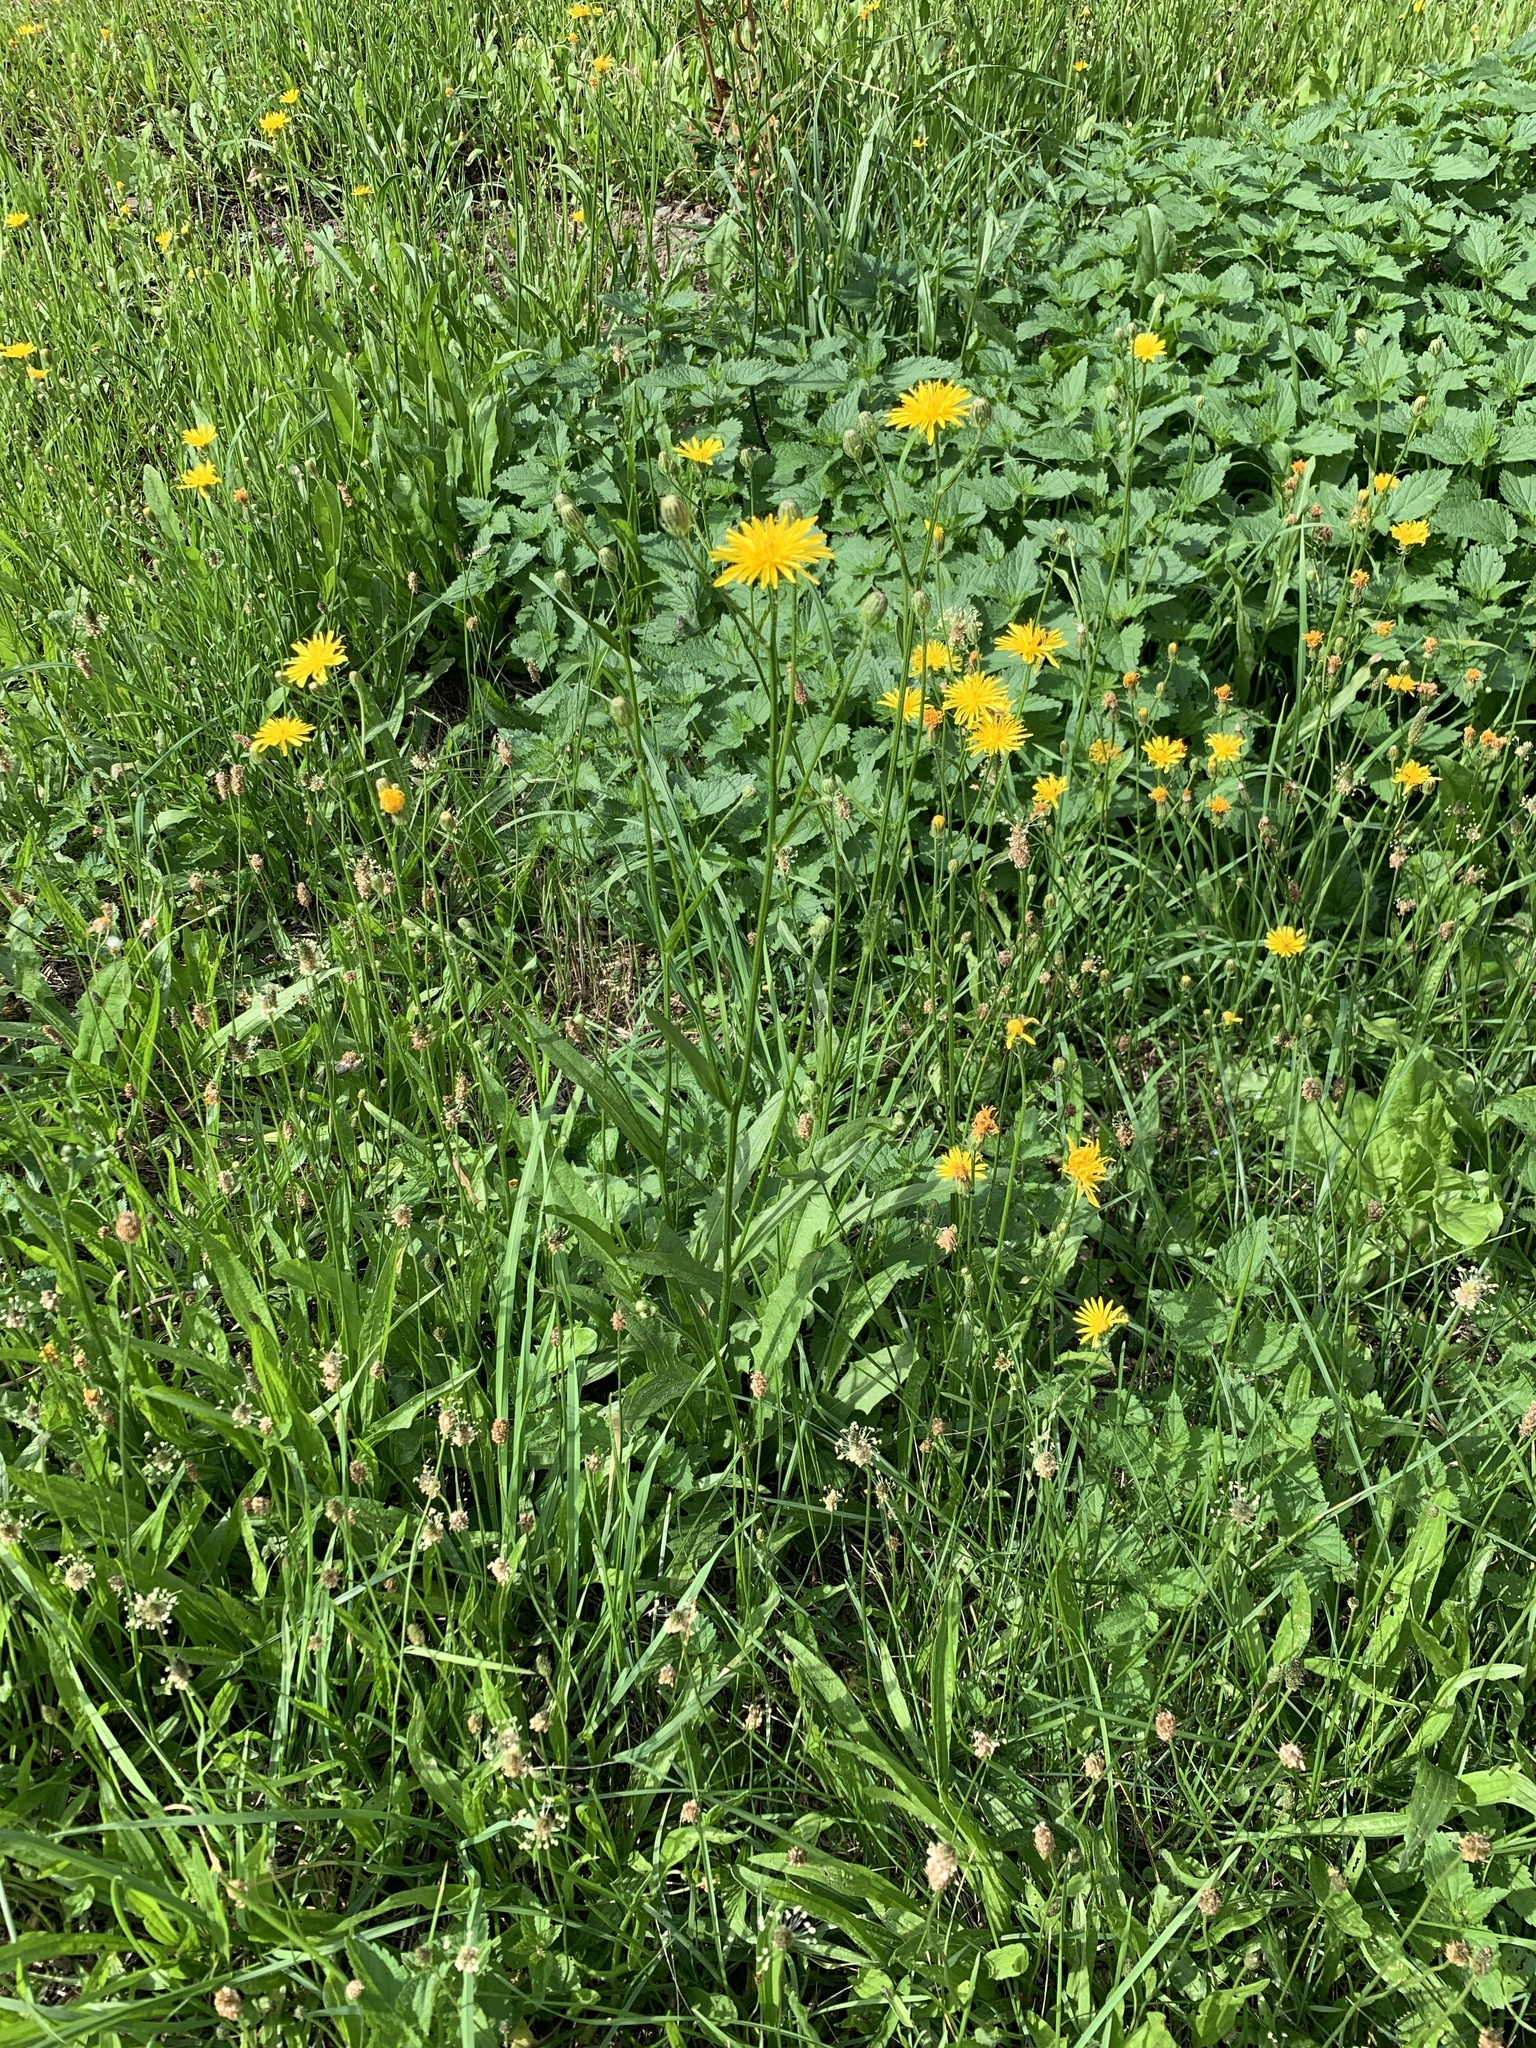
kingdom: Plantae
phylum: Tracheophyta
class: Magnoliopsida
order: Asterales
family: Asteraceae
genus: Crepis
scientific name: Crepis biennis
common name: Rough hawk's-beard
